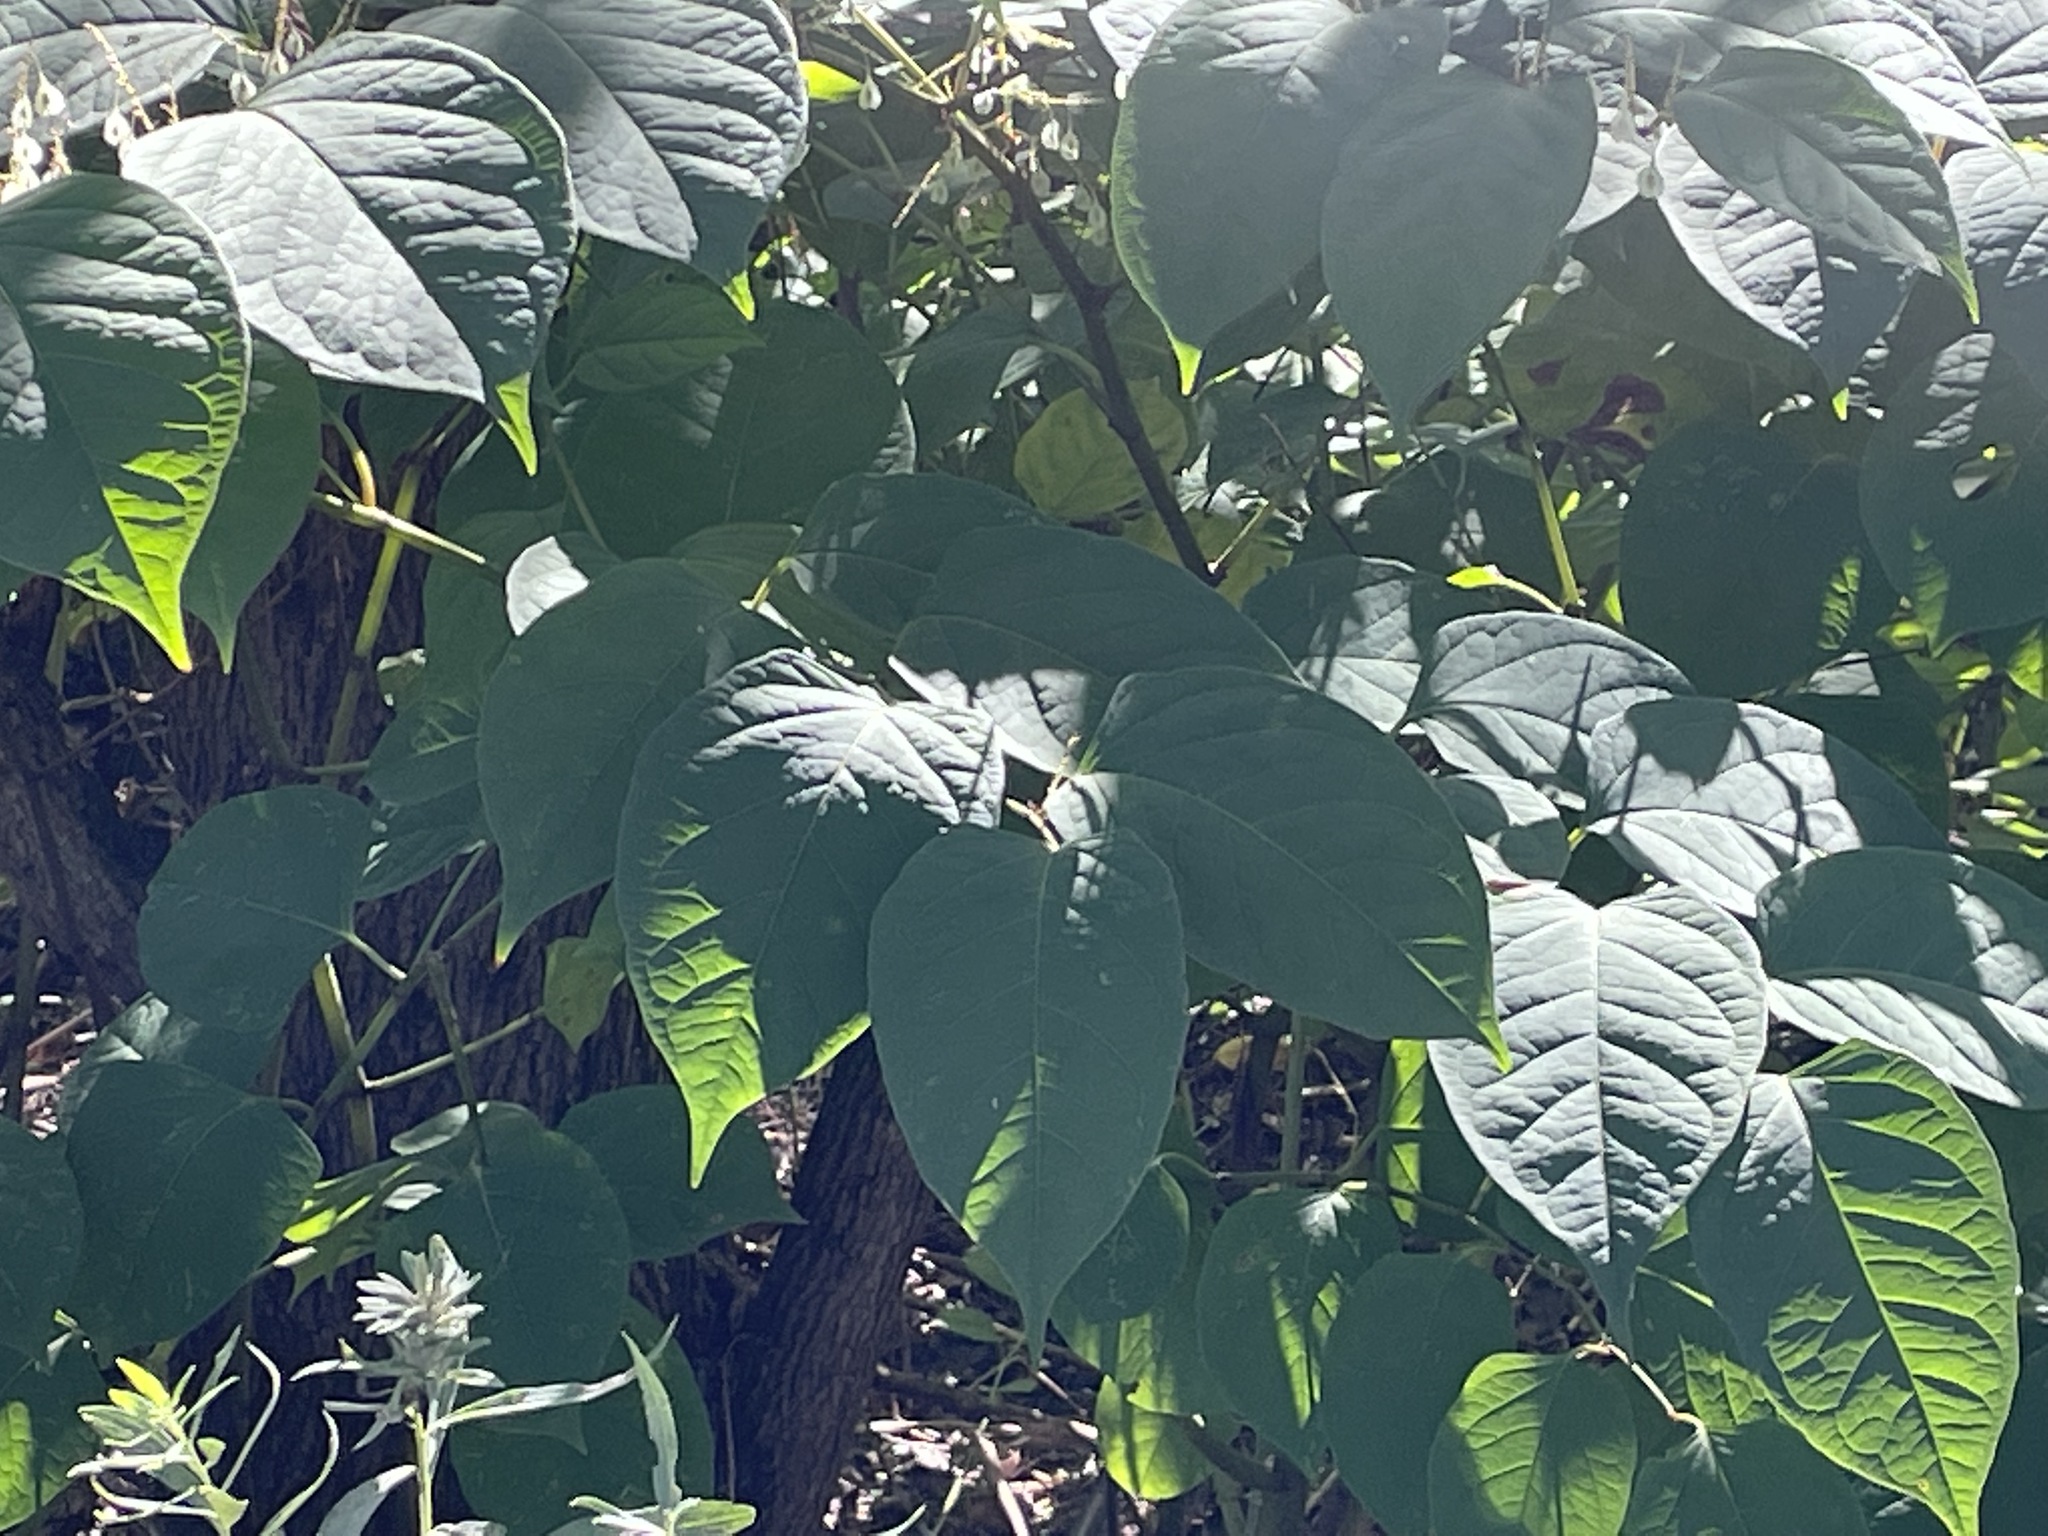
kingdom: Plantae
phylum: Tracheophyta
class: Magnoliopsida
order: Caryophyllales
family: Polygonaceae
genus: Reynoutria
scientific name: Reynoutria japonica
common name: Japanese knotweed
